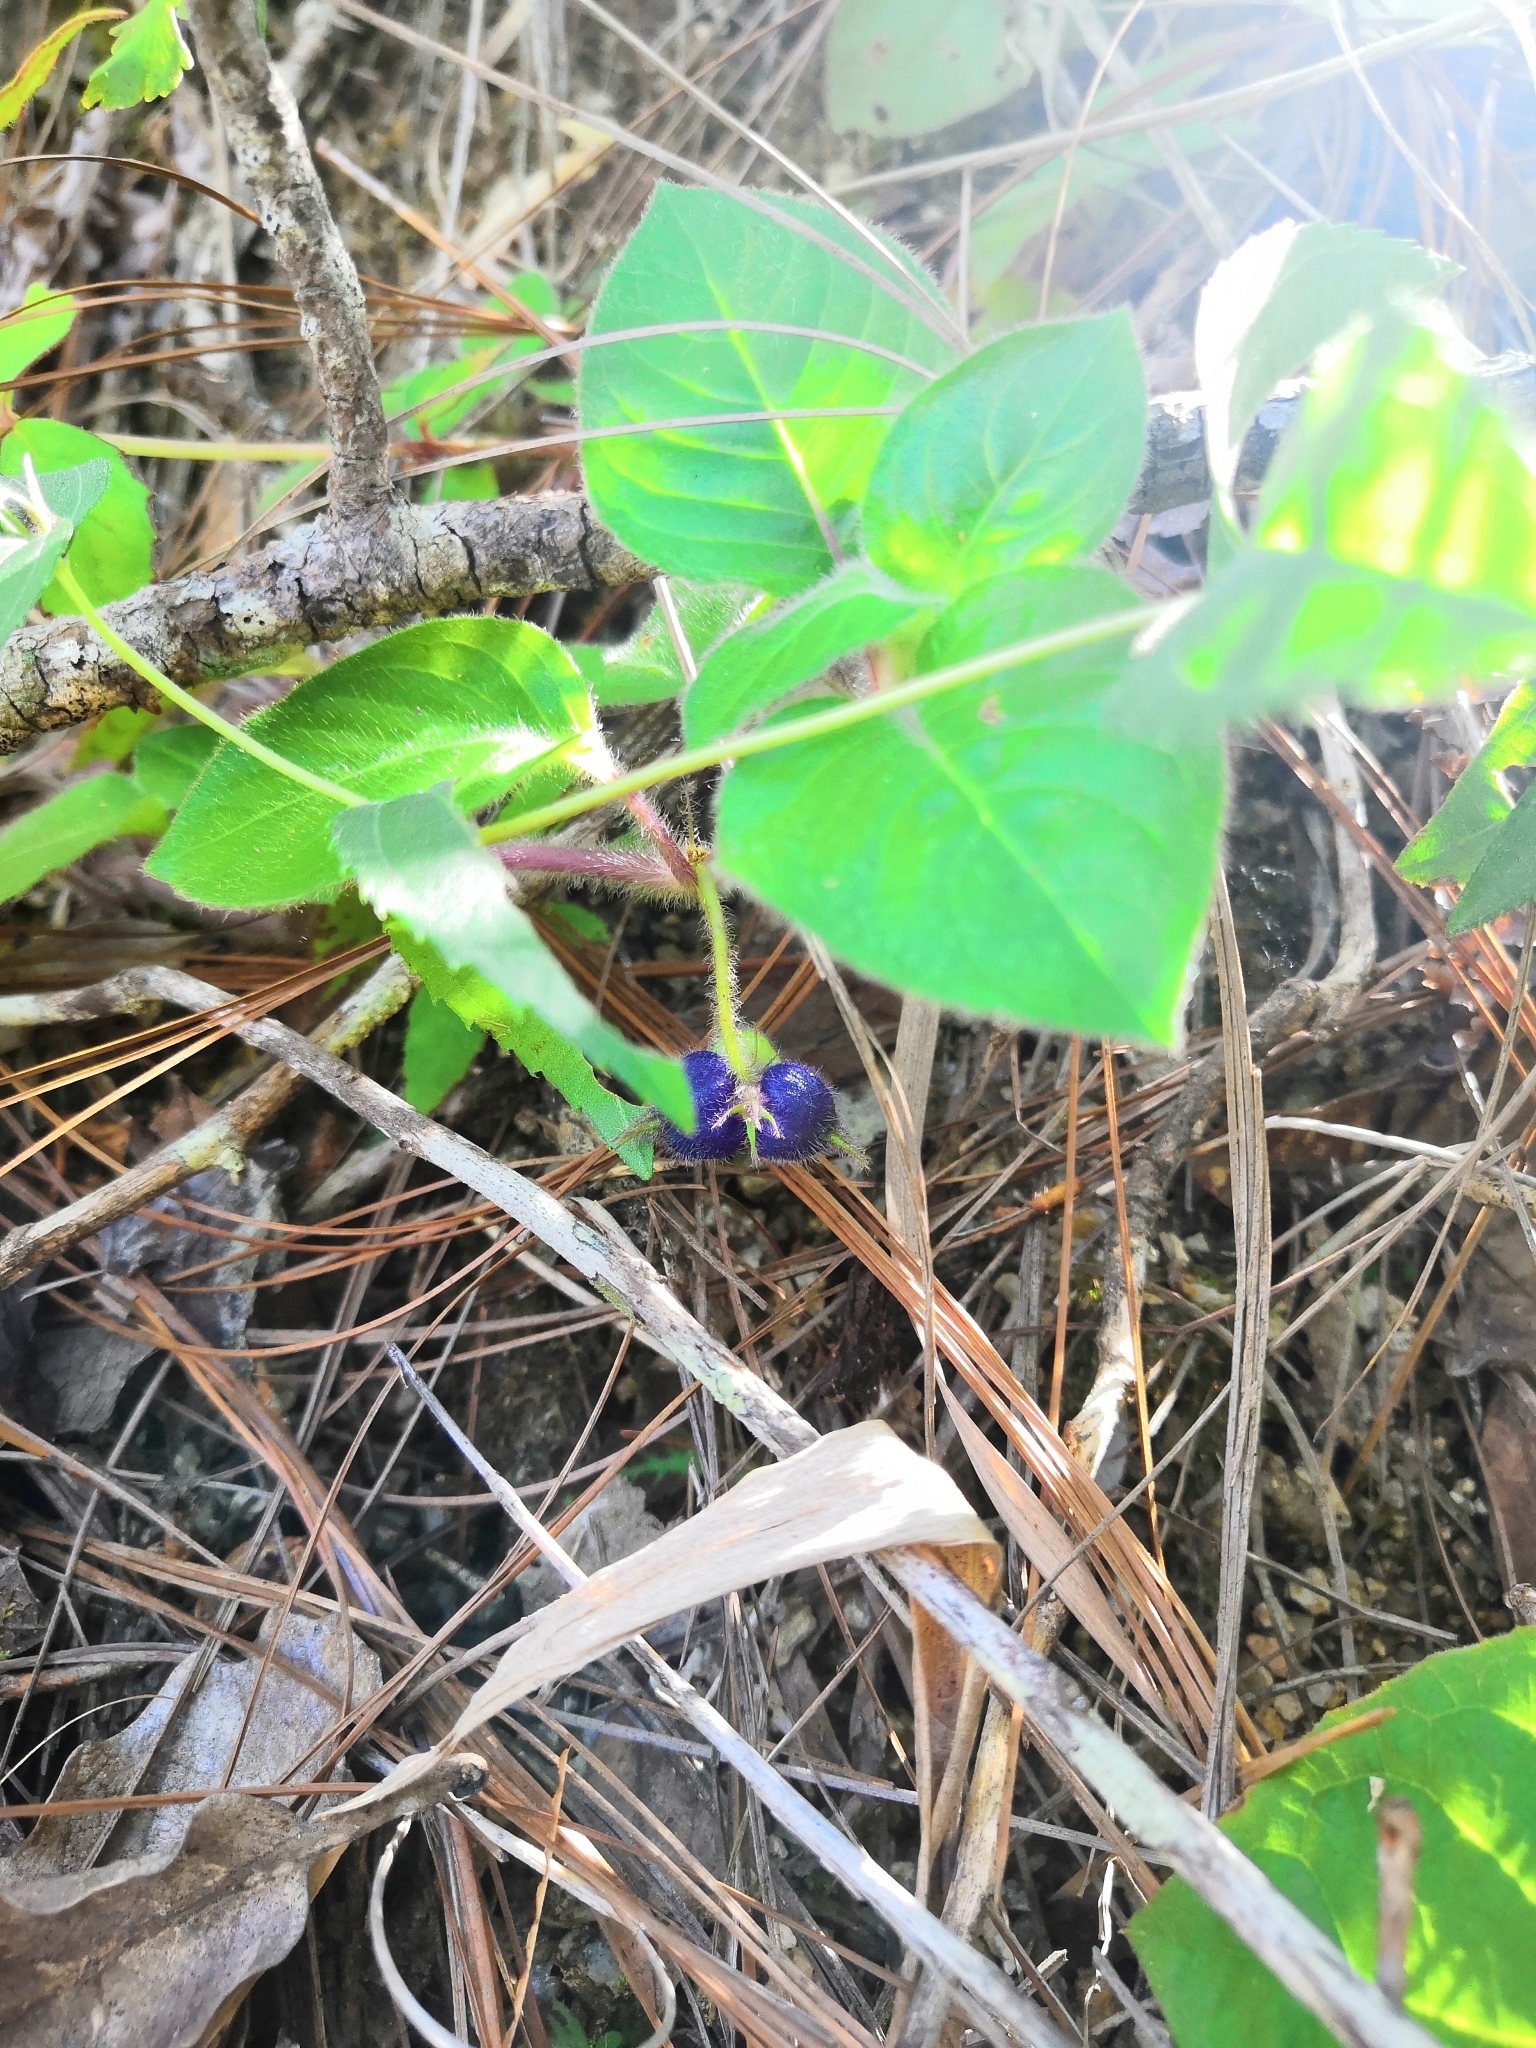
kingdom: Plantae
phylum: Tracheophyta
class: Magnoliopsida
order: Gentianales
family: Rubiaceae
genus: Coccocypselum
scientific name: Coccocypselum hirsutum
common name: Yerba de guava
